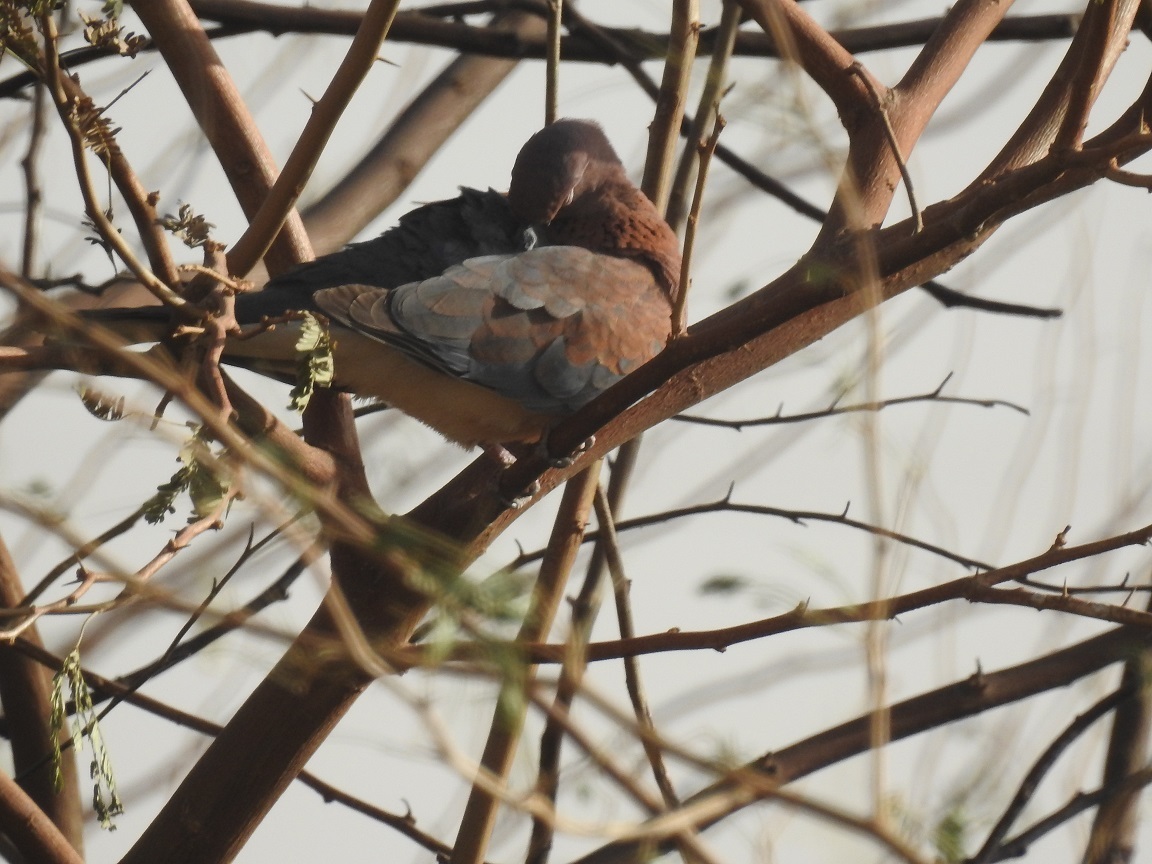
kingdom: Animalia
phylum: Chordata
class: Aves
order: Columbiformes
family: Columbidae
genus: Spilopelia
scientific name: Spilopelia senegalensis
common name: Laughing dove
